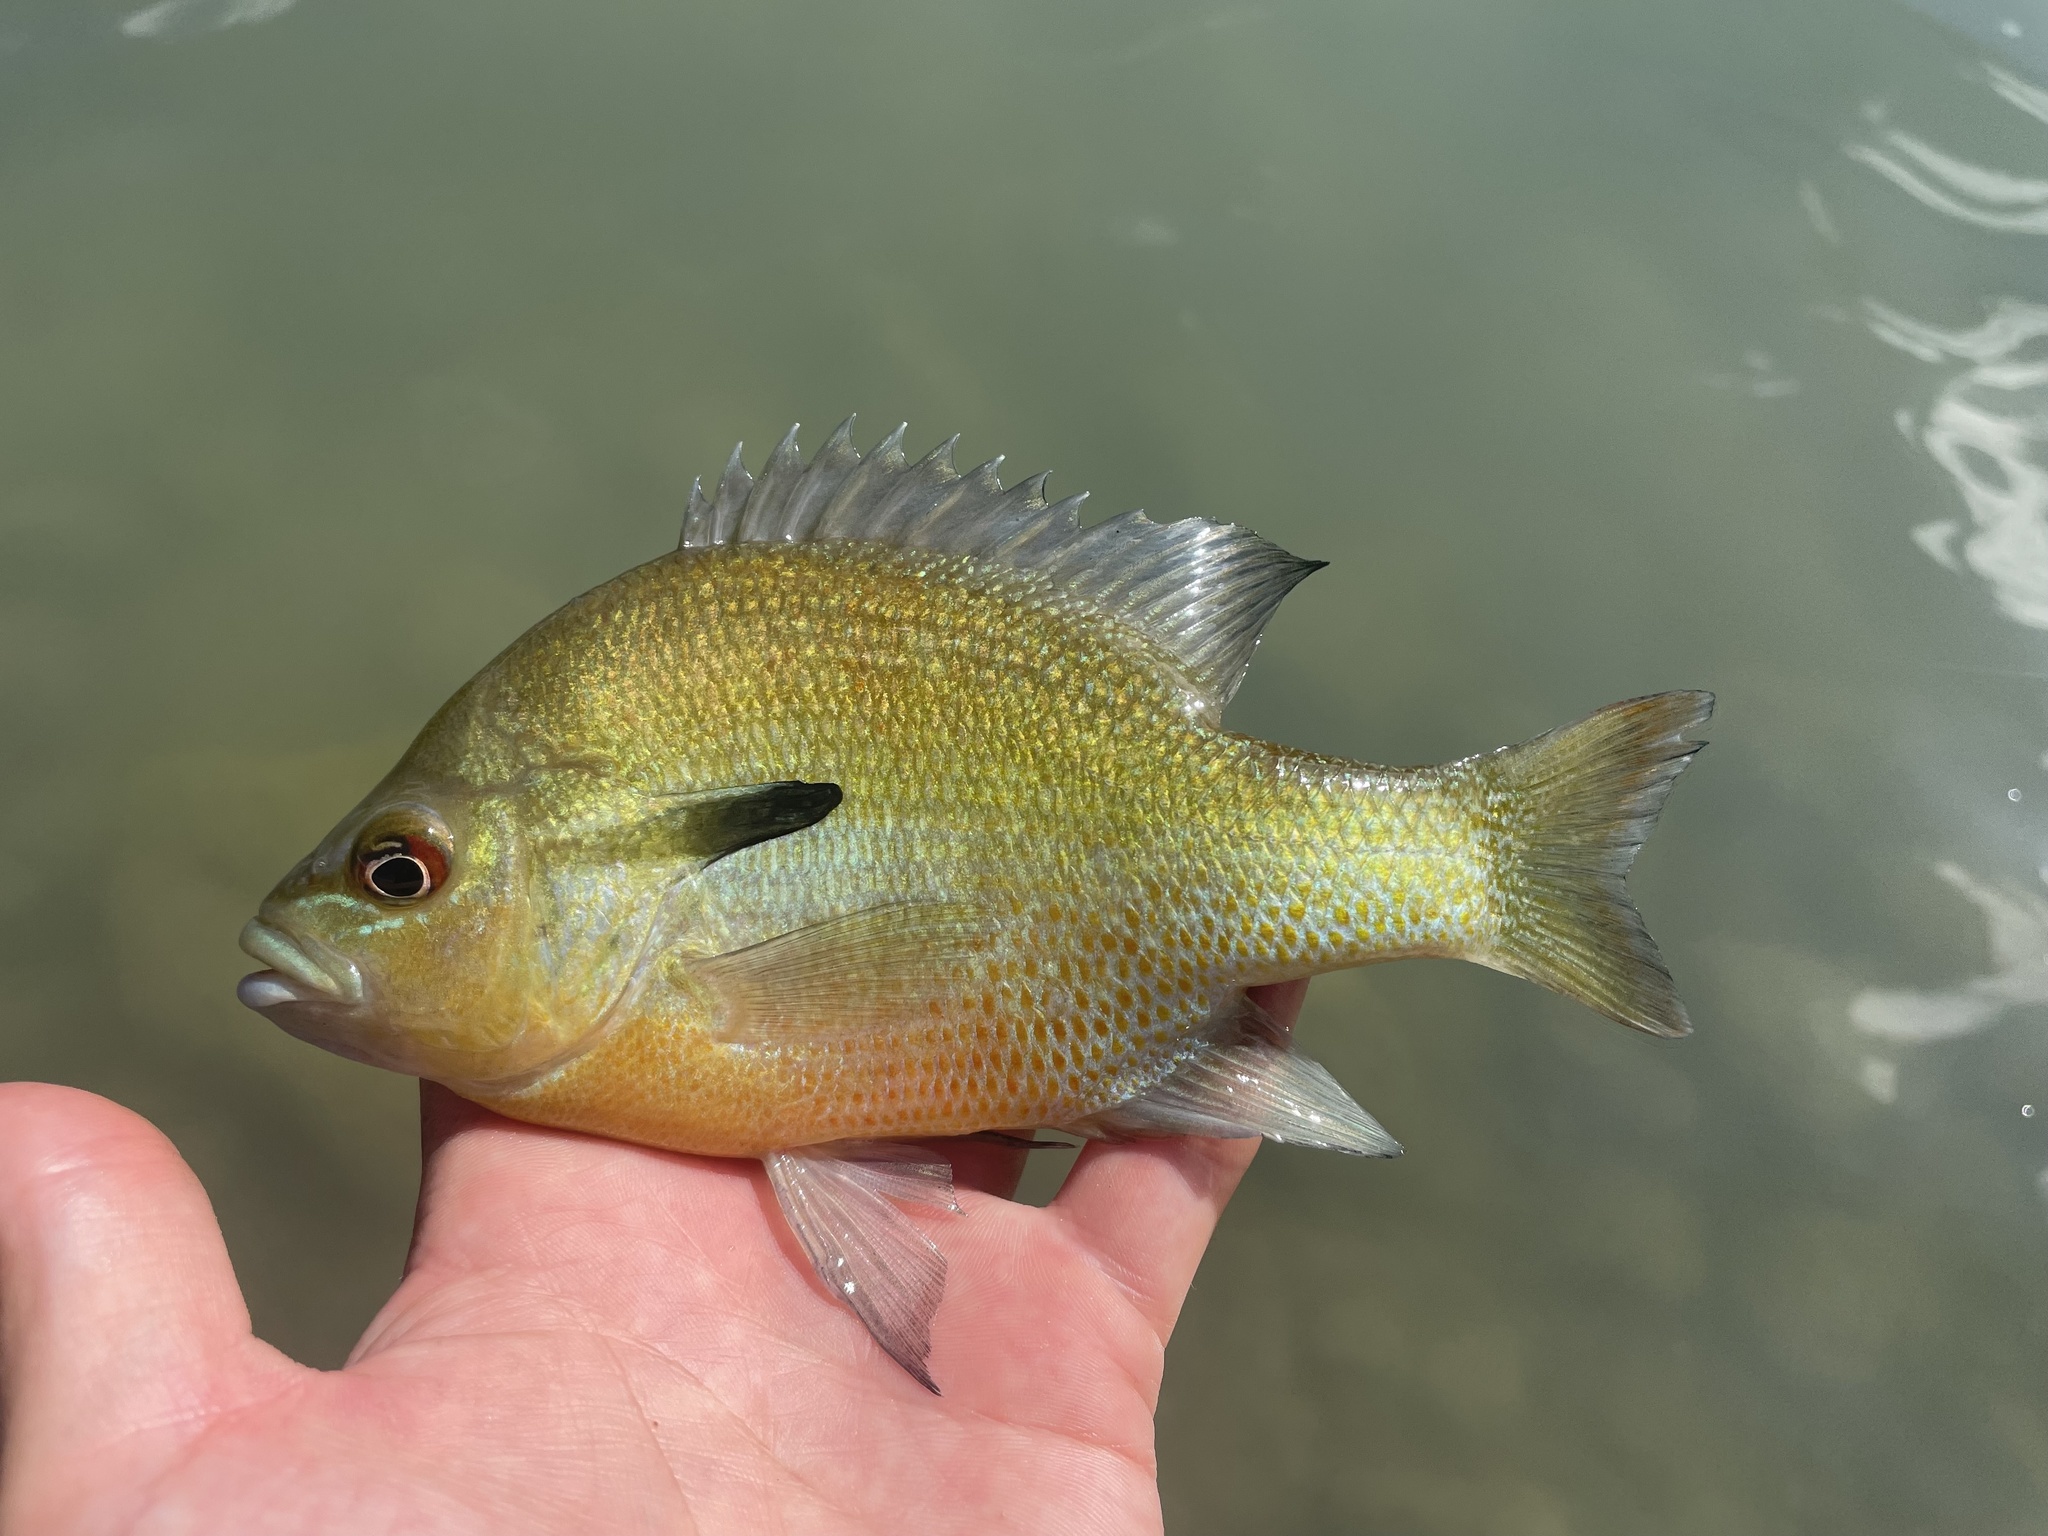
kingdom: Animalia
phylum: Chordata
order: Perciformes
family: Centrarchidae
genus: Lepomis
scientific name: Lepomis auritus
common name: Redbreast sunfish
